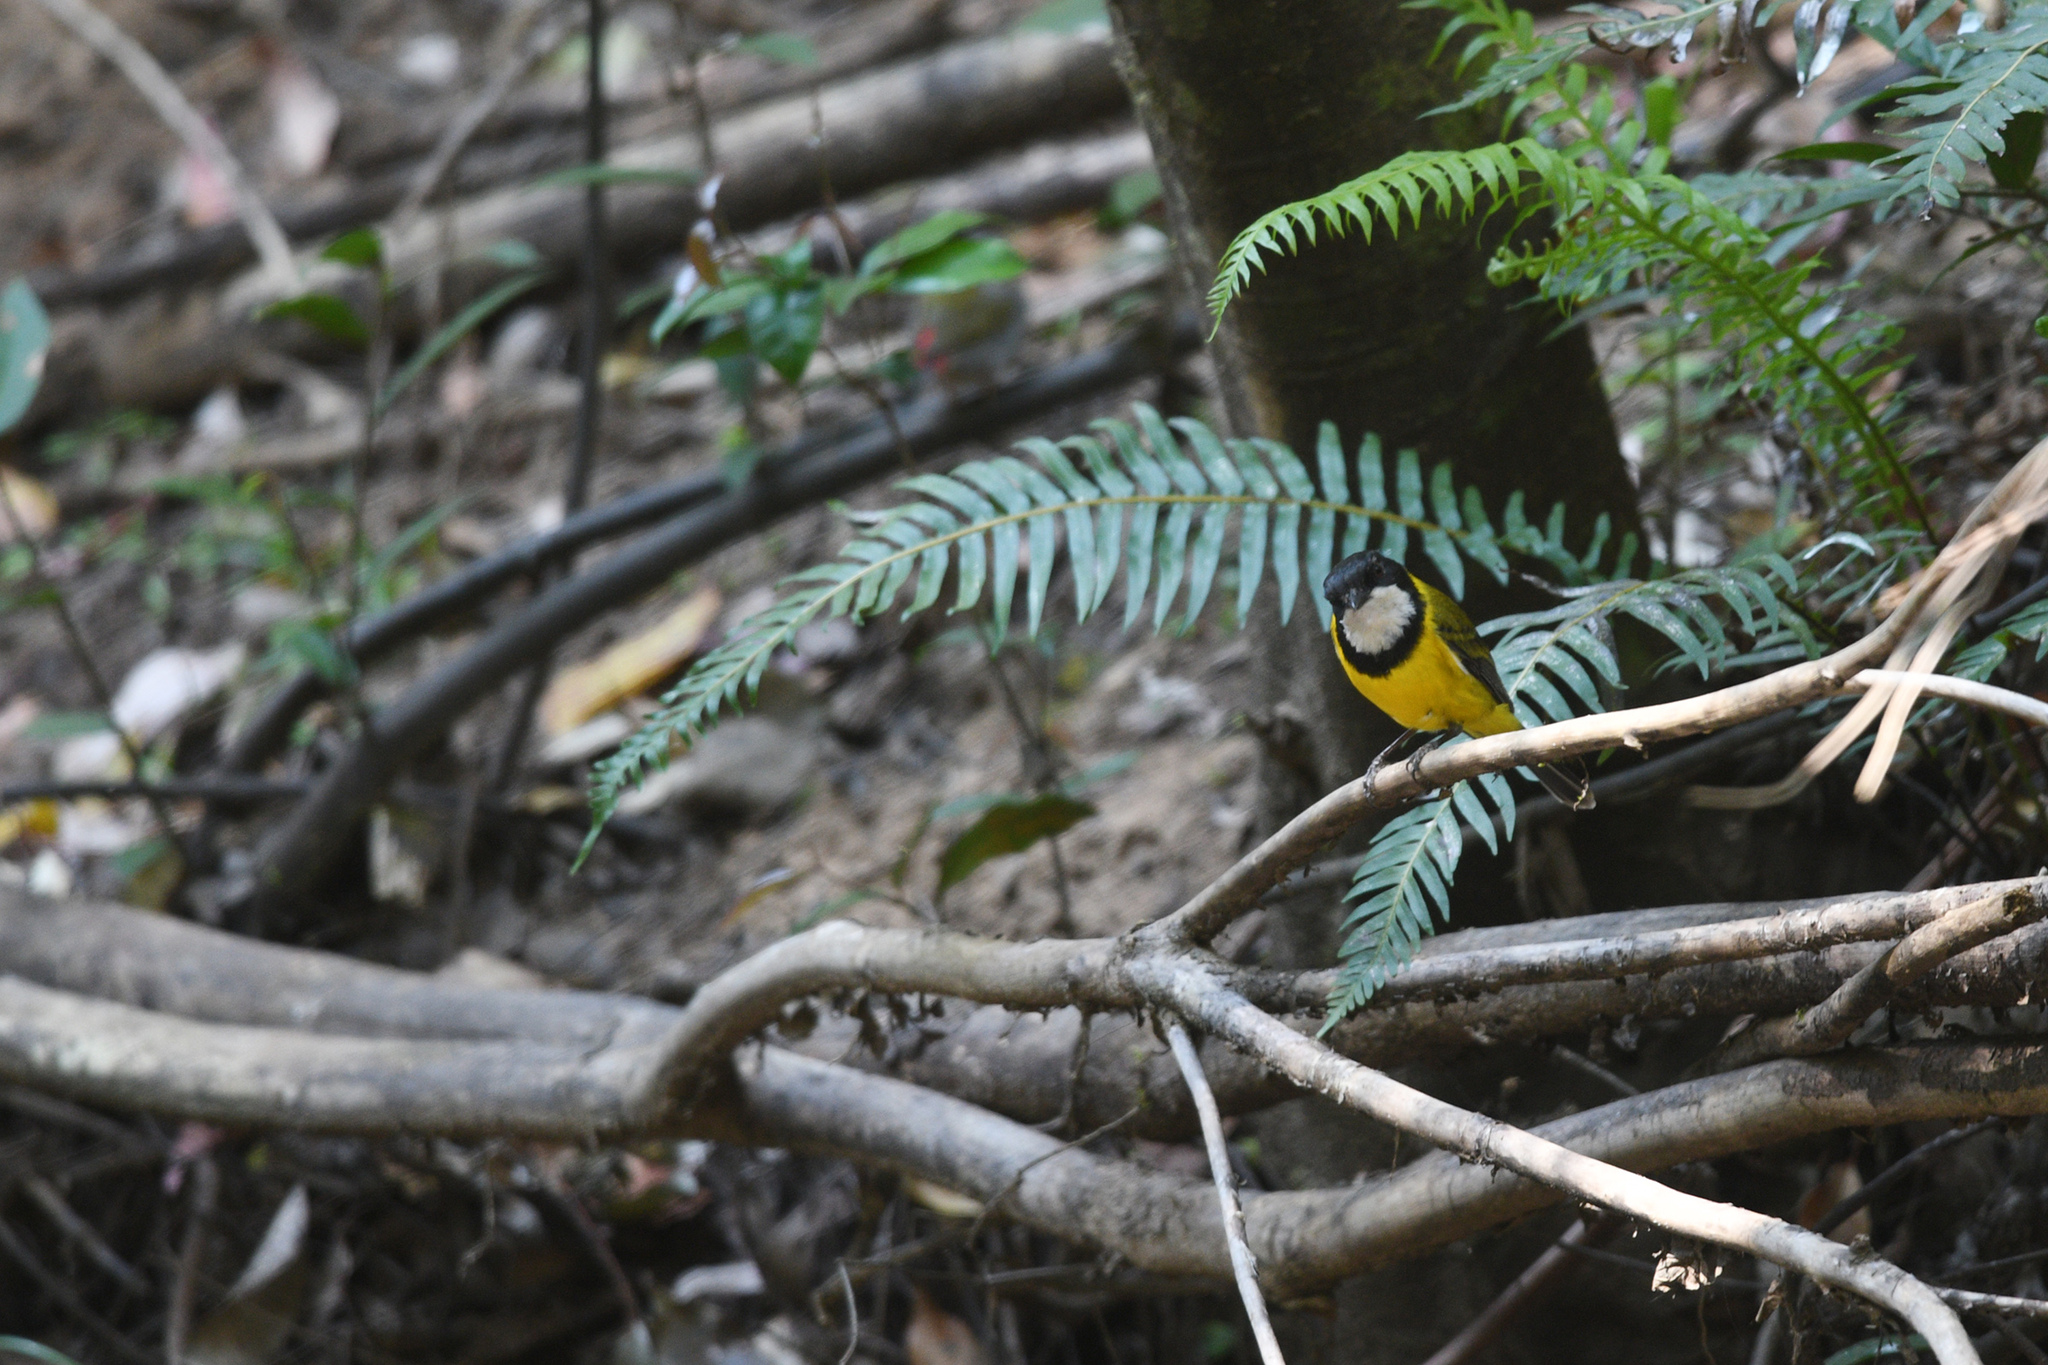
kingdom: Animalia
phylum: Chordata
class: Aves
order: Passeriformes
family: Pachycephalidae
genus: Pachycephala
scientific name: Pachycephala pectoralis
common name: Australian golden whistler
